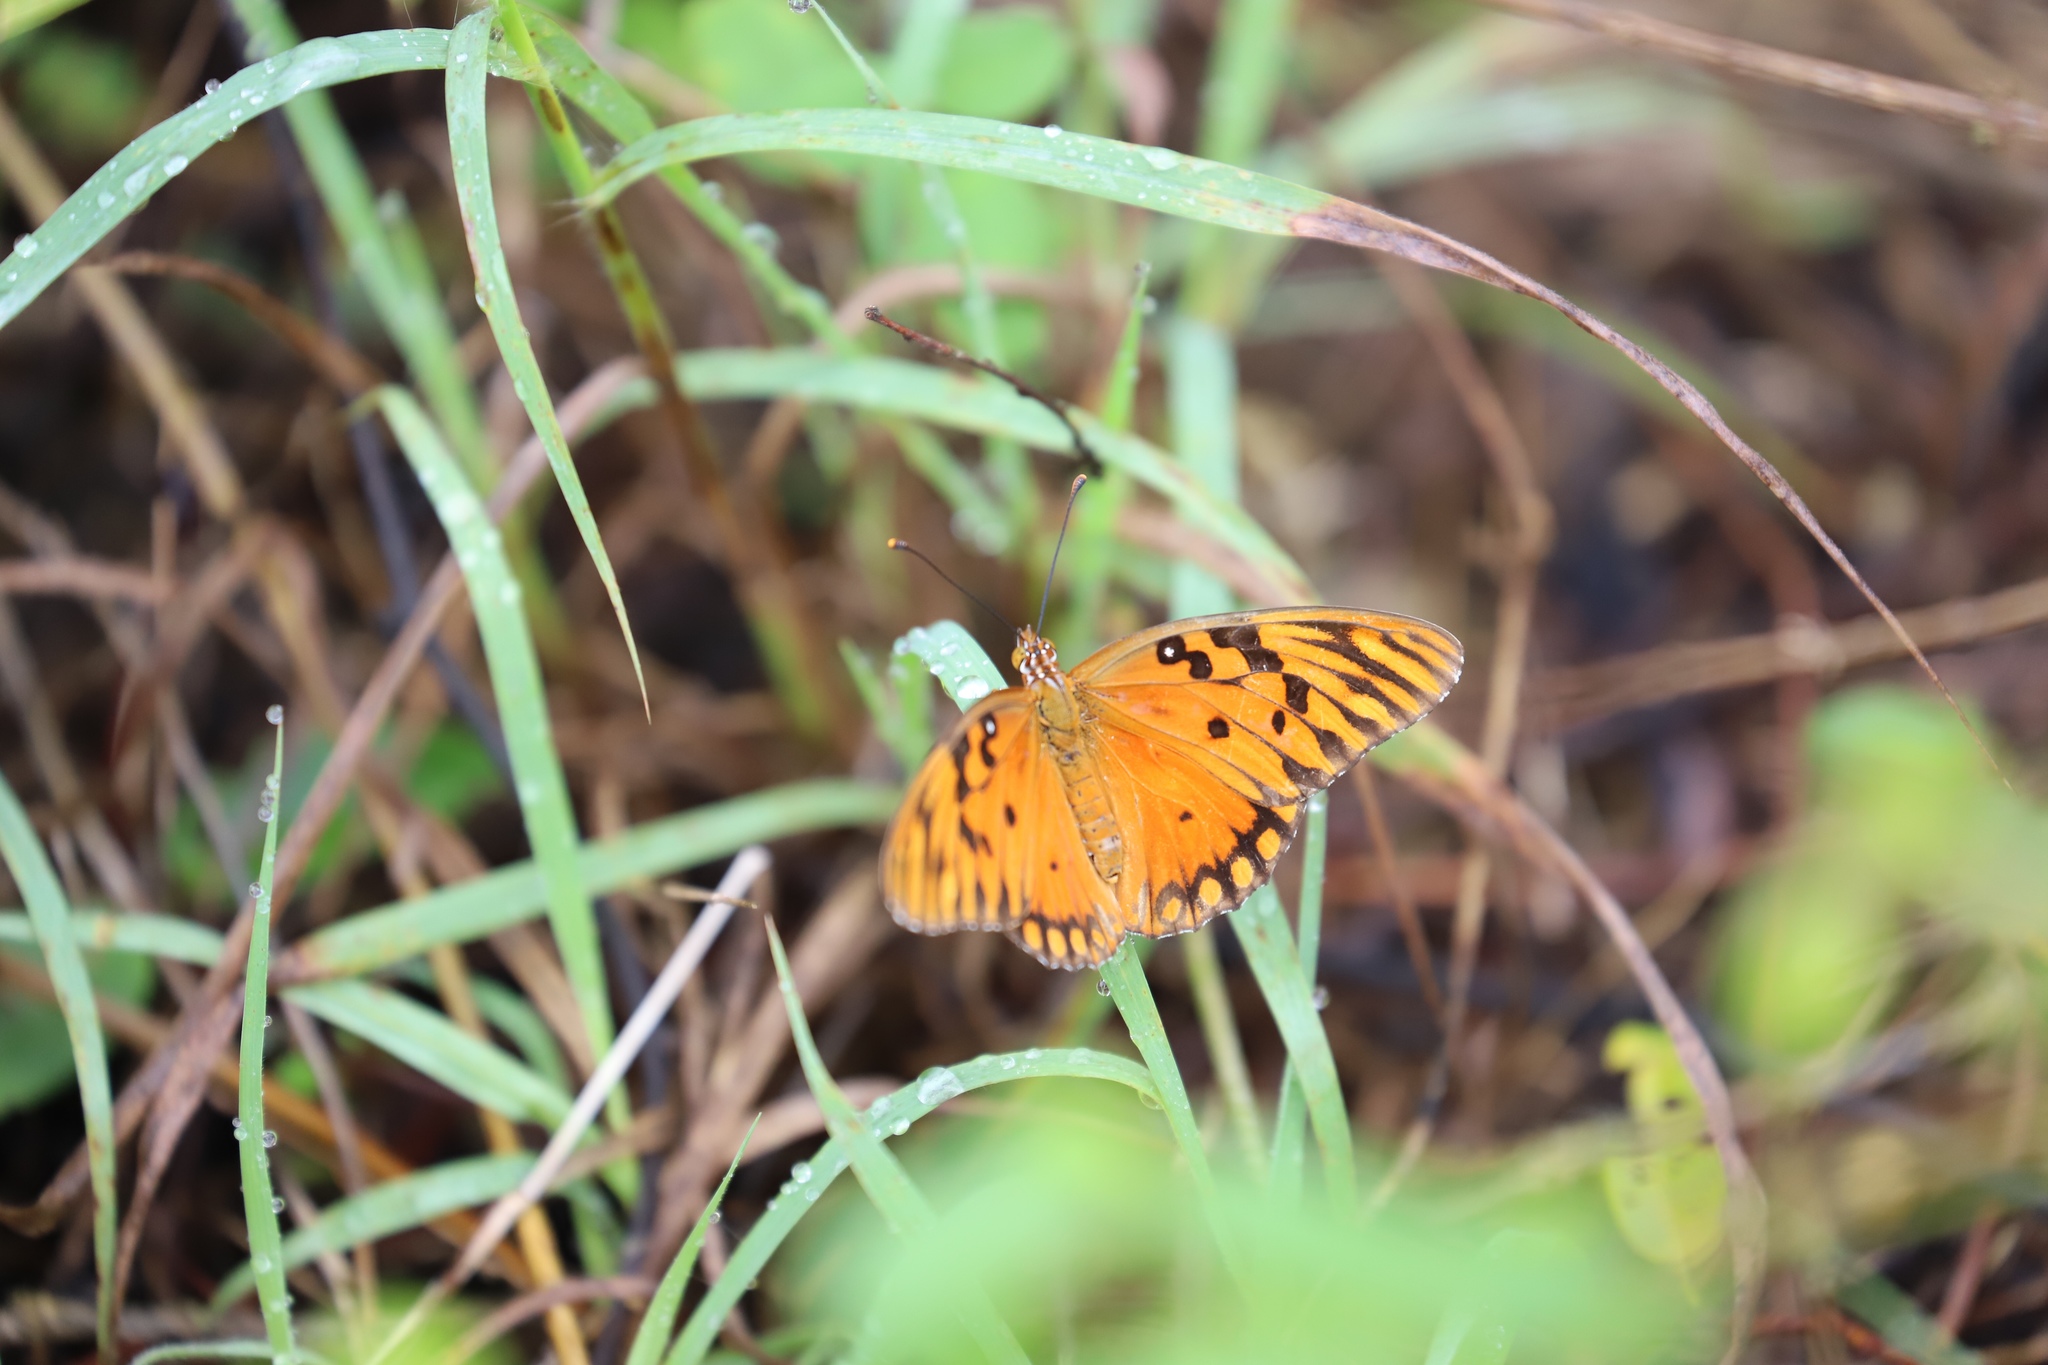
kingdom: Animalia
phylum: Arthropoda
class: Insecta
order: Lepidoptera
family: Nymphalidae
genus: Dione
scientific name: Dione vanillae
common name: Gulf fritillary
